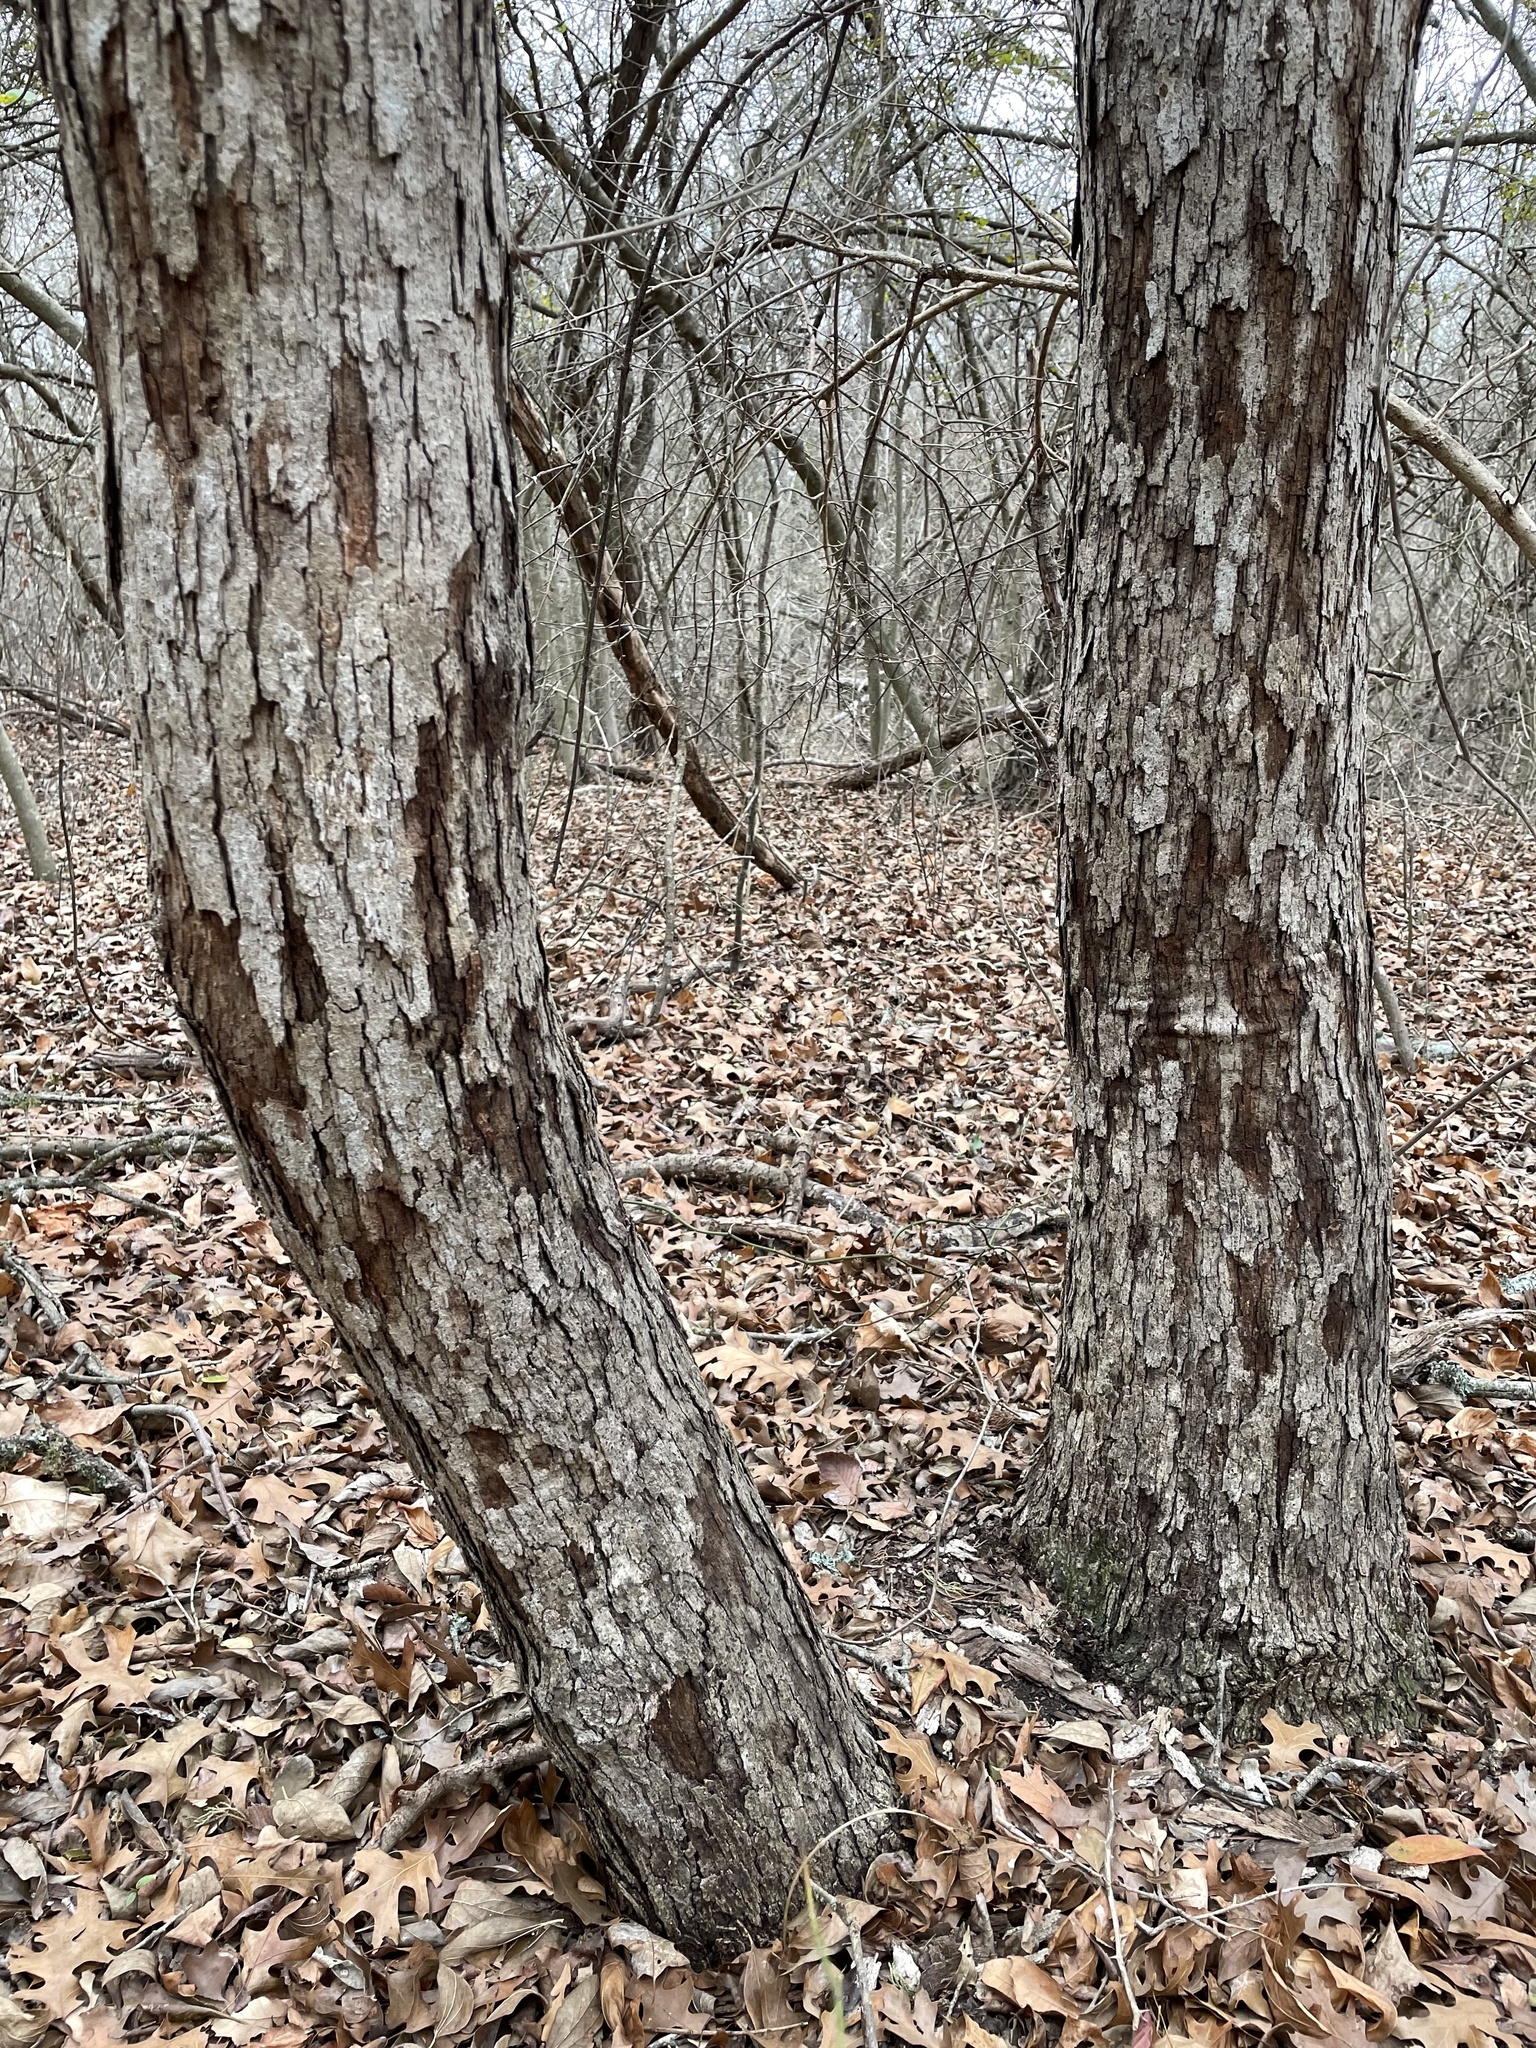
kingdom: Plantae
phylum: Tracheophyta
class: Magnoliopsida
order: Fagales
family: Fagaceae
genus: Quercus
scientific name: Quercus sinuata
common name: Durand oak
